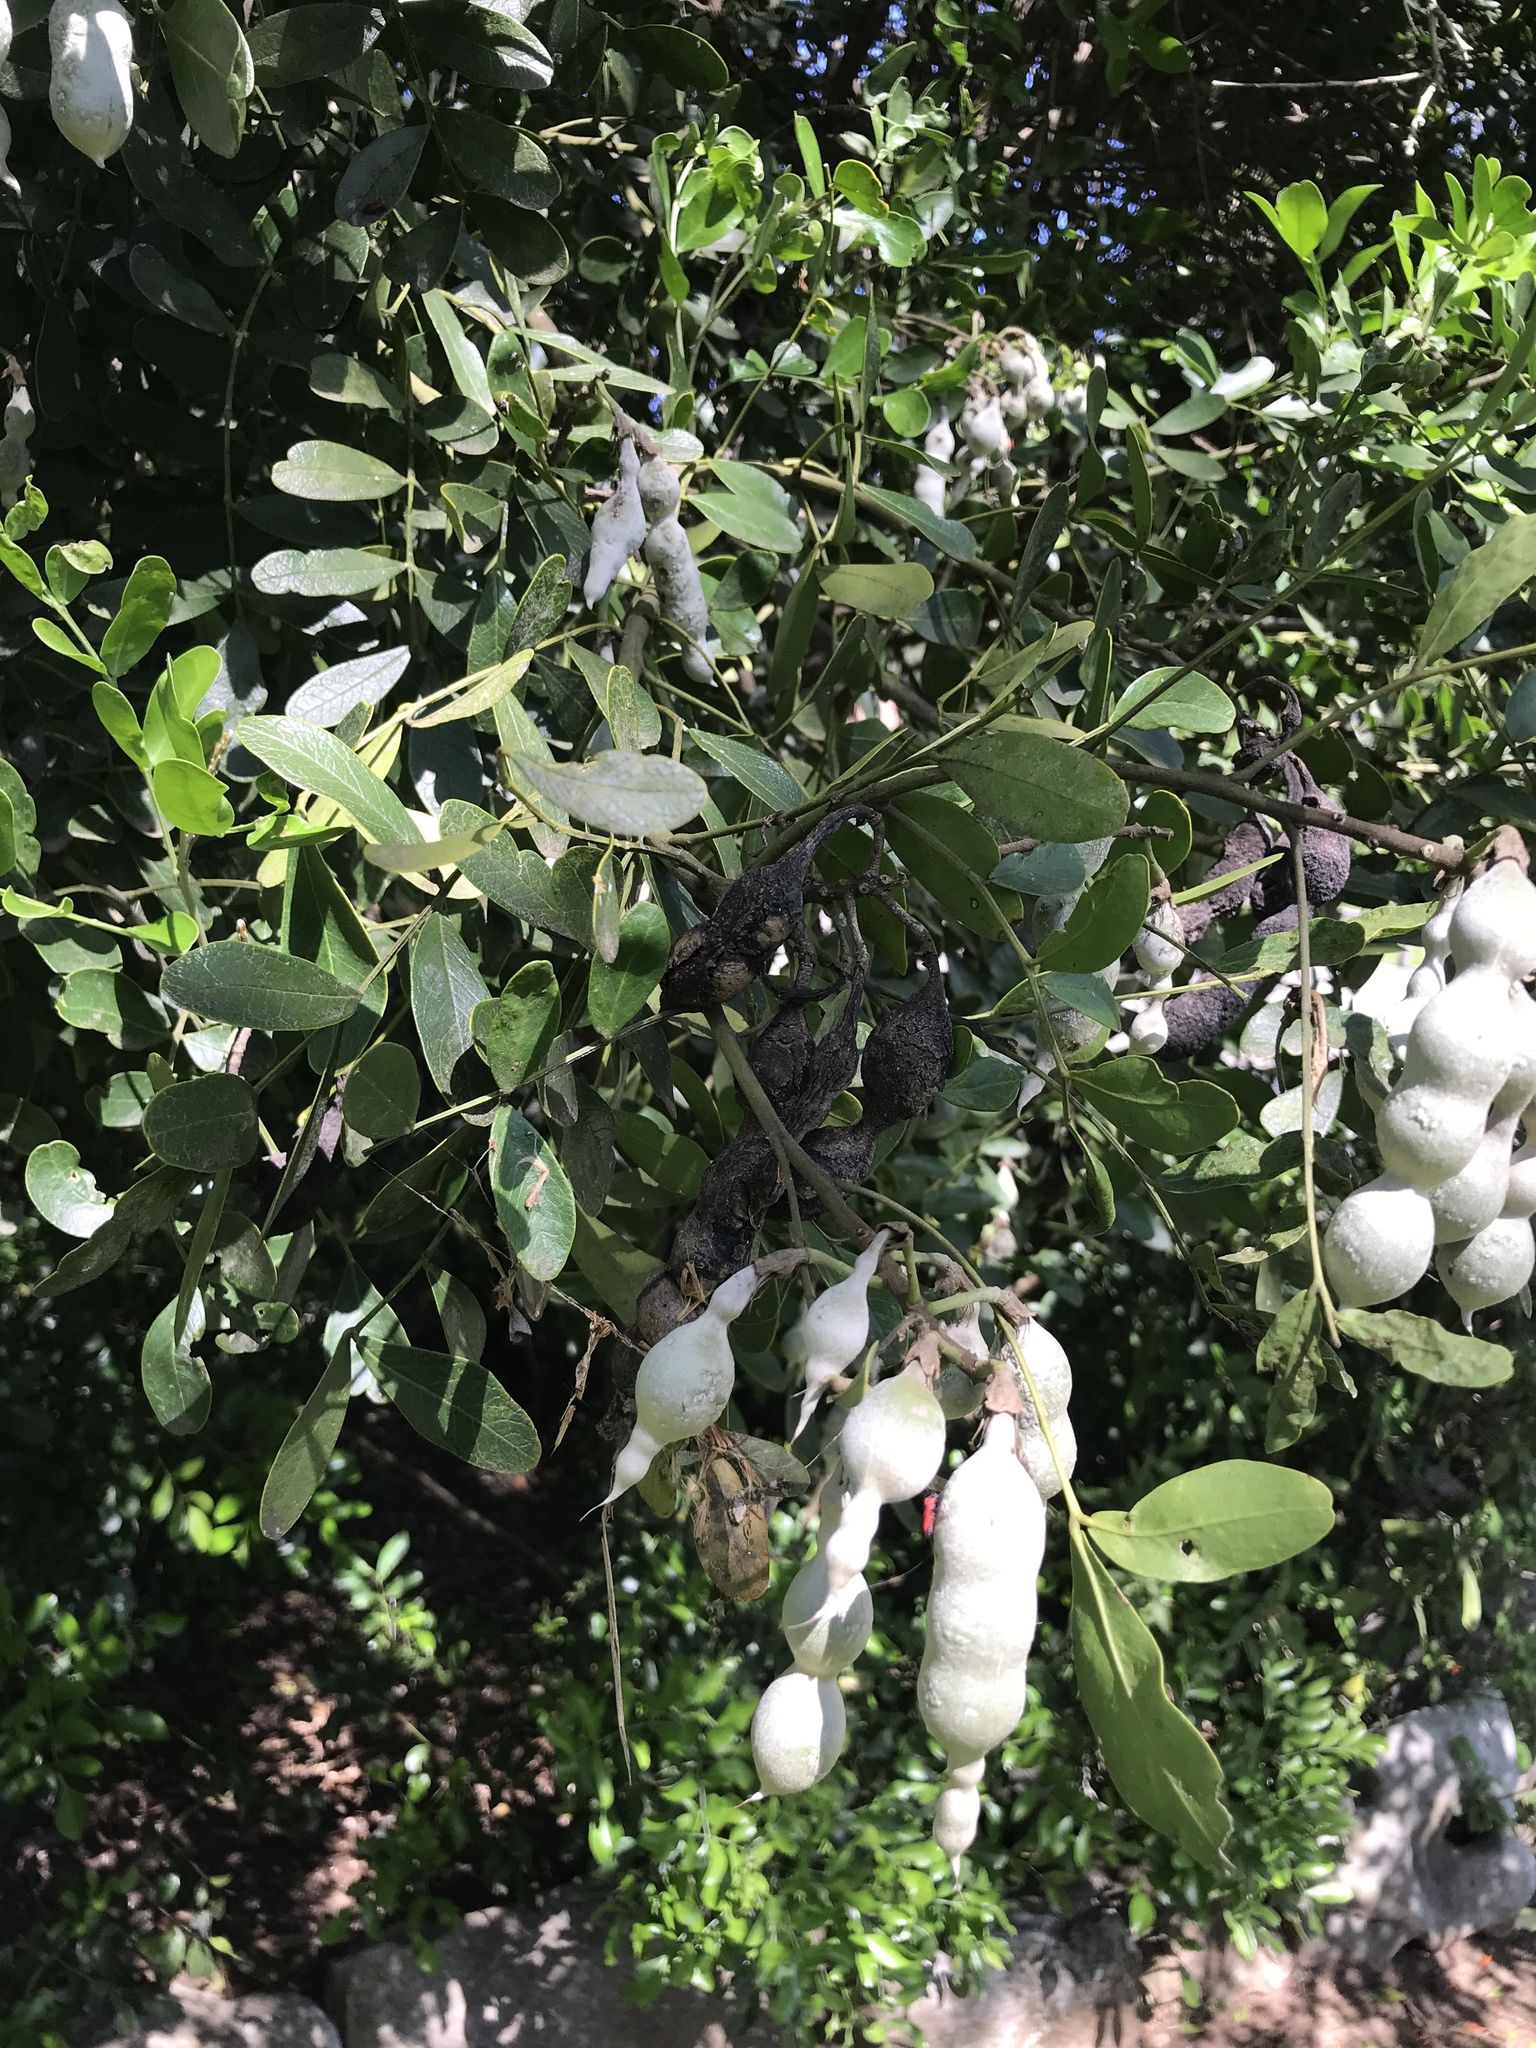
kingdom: Plantae
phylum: Tracheophyta
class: Magnoliopsida
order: Fabales
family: Fabaceae
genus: Dermatophyllum
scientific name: Dermatophyllum secundiflorum
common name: Texas-mountain-laurel
